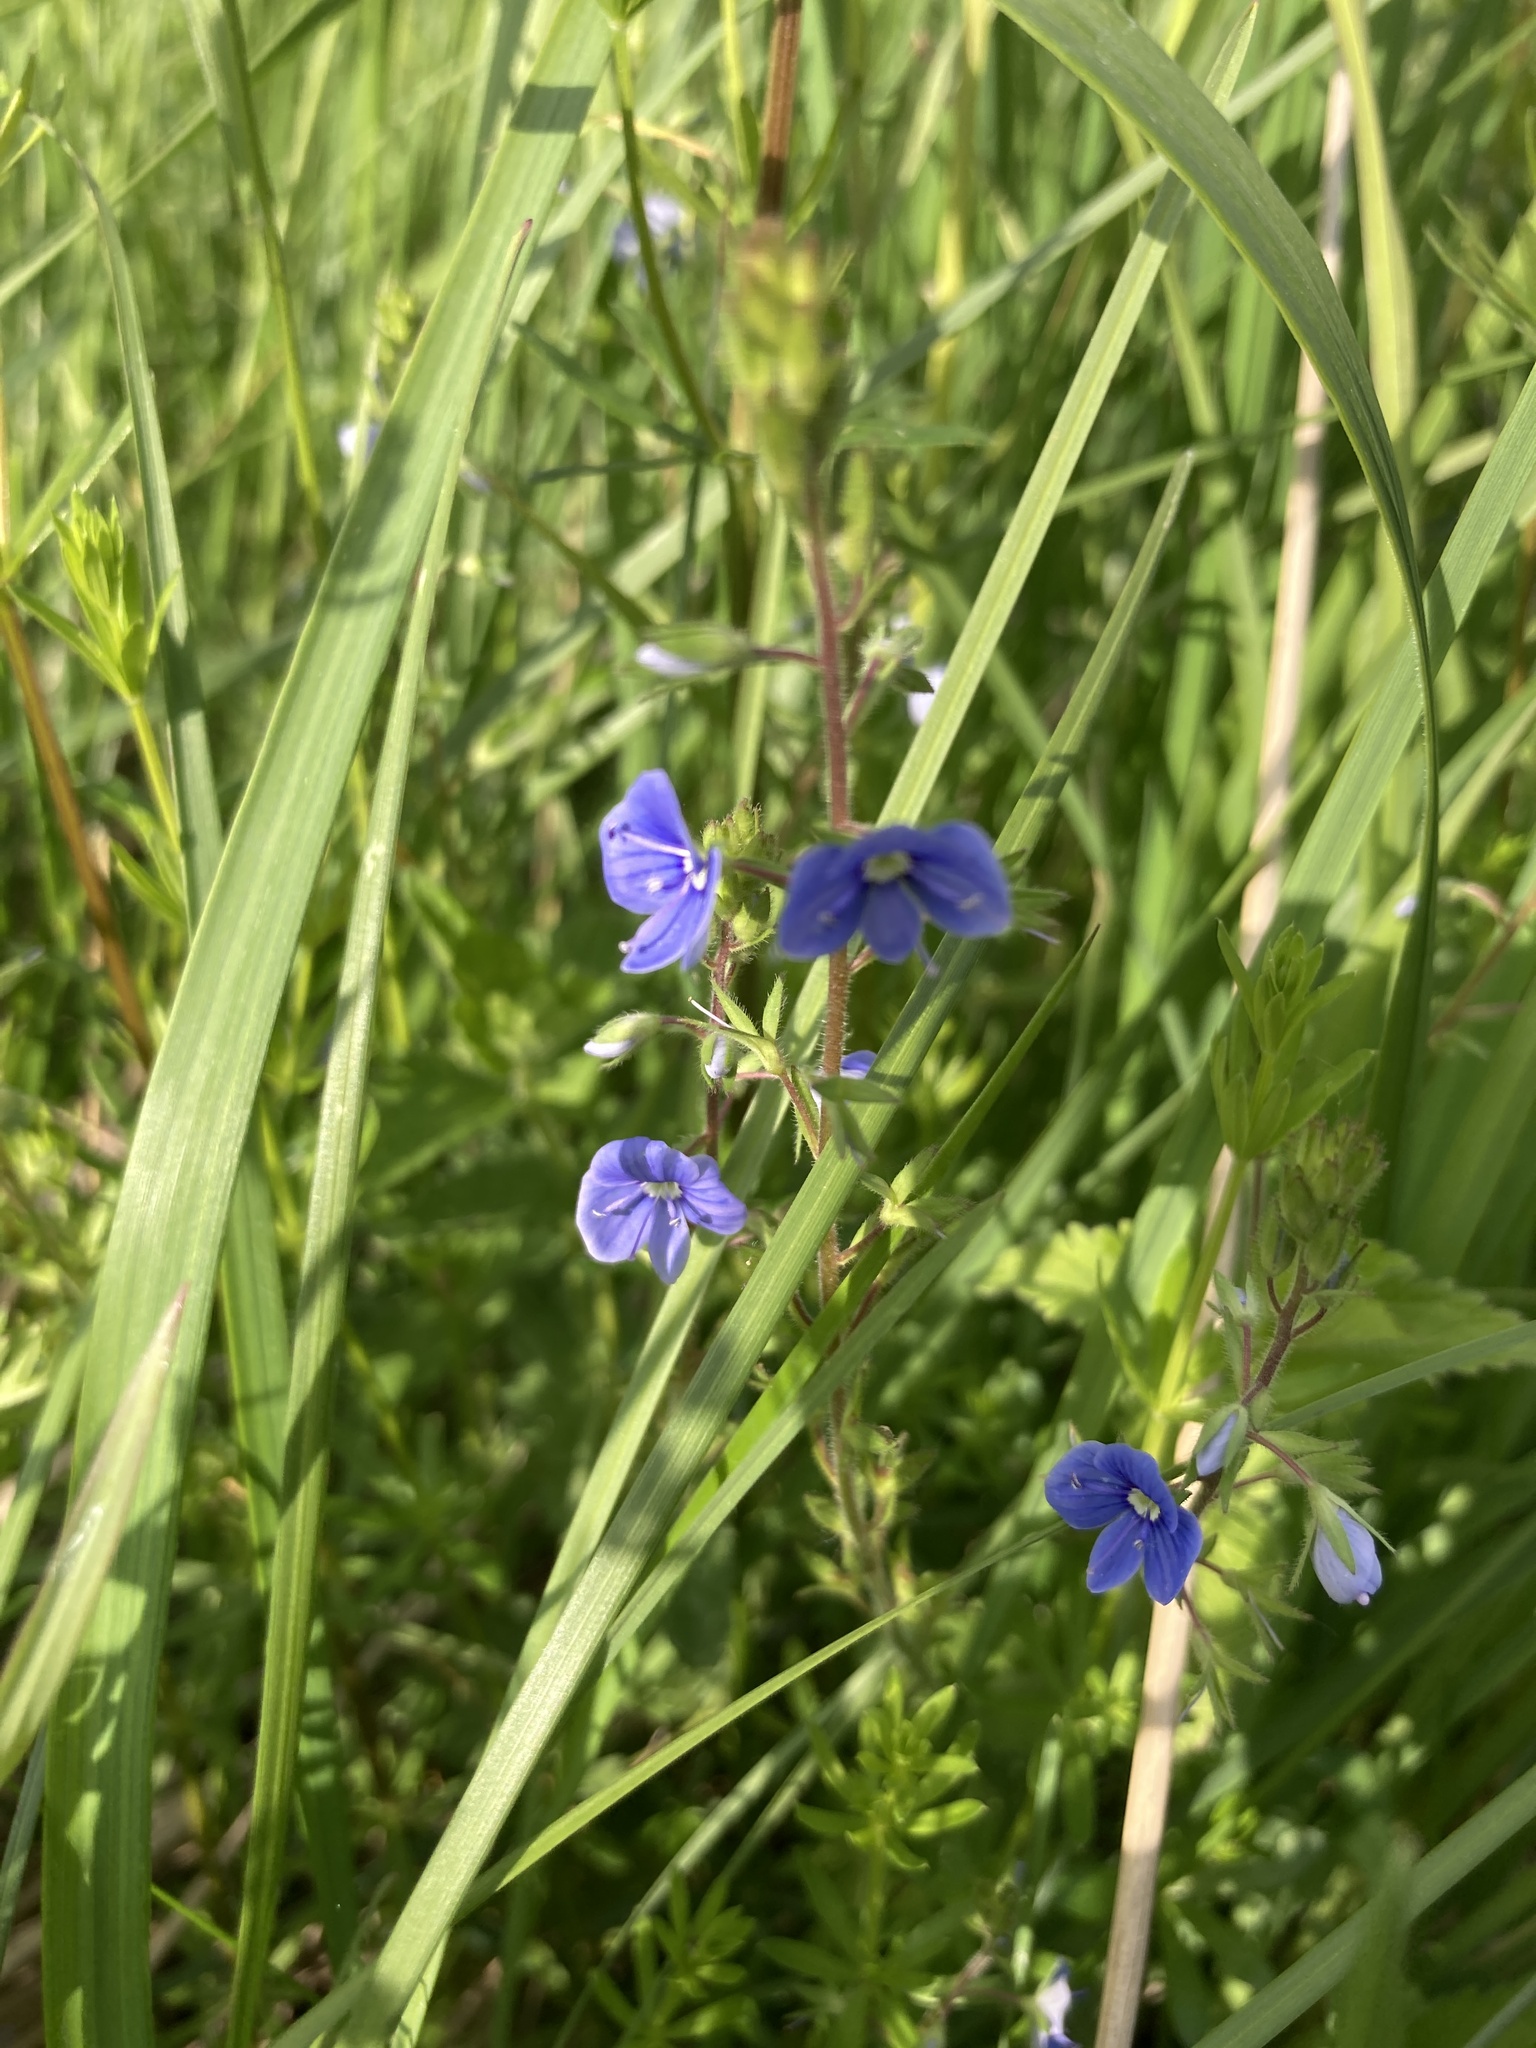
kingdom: Plantae
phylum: Tracheophyta
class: Magnoliopsida
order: Lamiales
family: Plantaginaceae
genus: Veronica
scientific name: Veronica chamaedrys
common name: Germander speedwell
